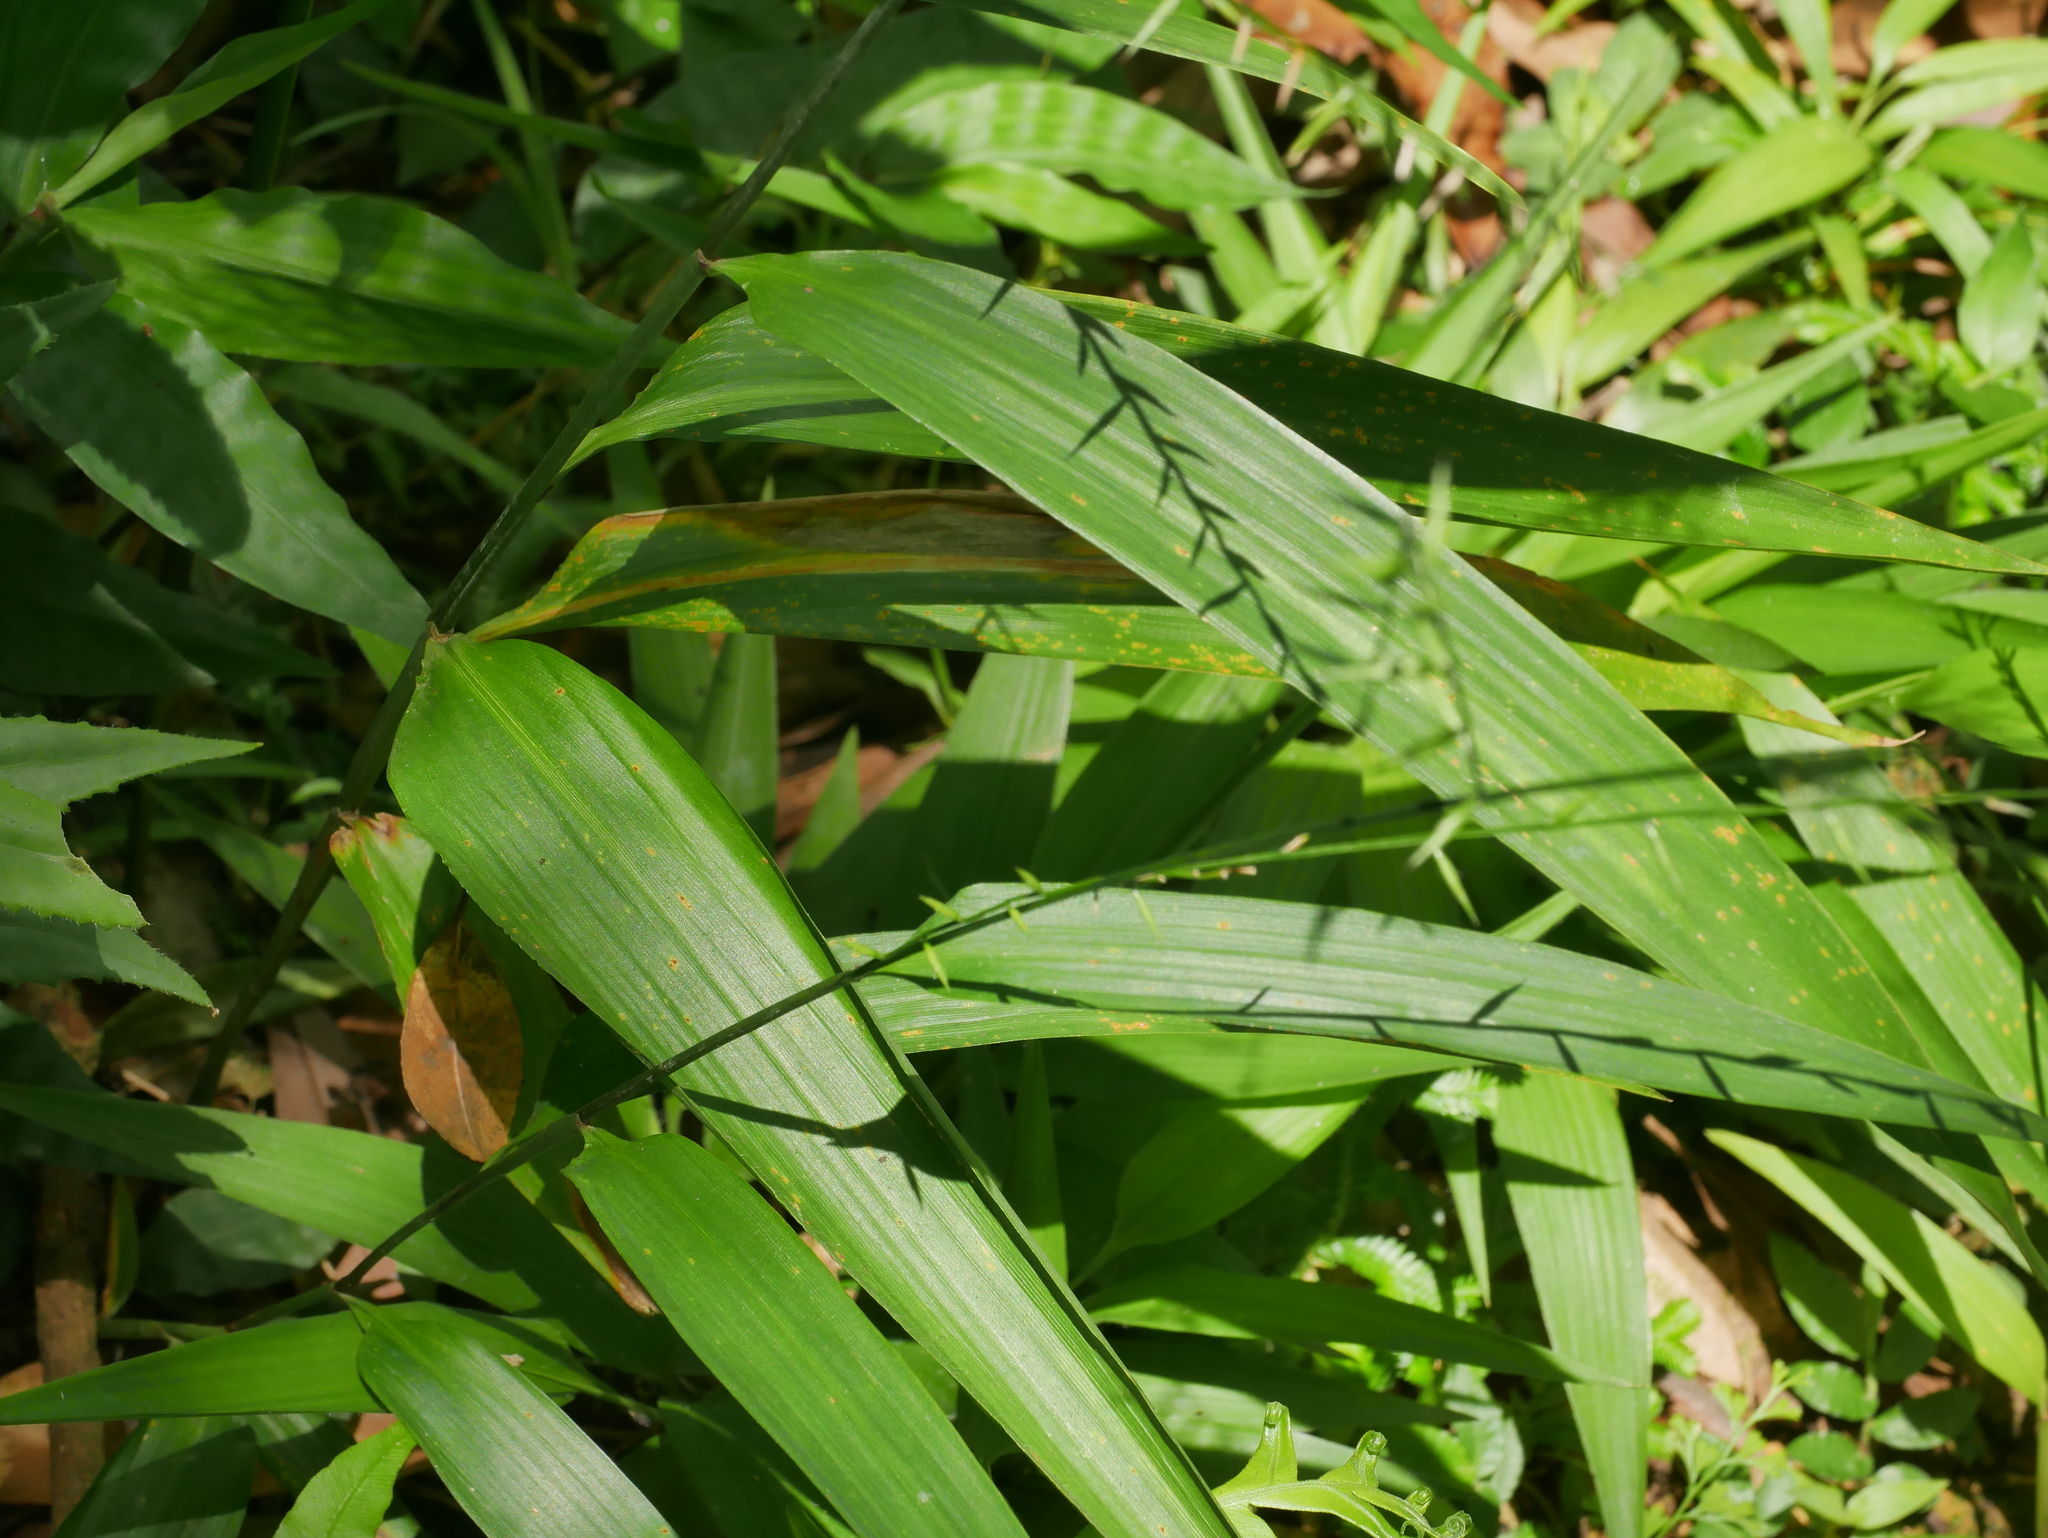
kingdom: Plantae
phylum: Tracheophyta
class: Liliopsida
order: Poales
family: Poaceae
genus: Lophatherum
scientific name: Lophatherum gracile
